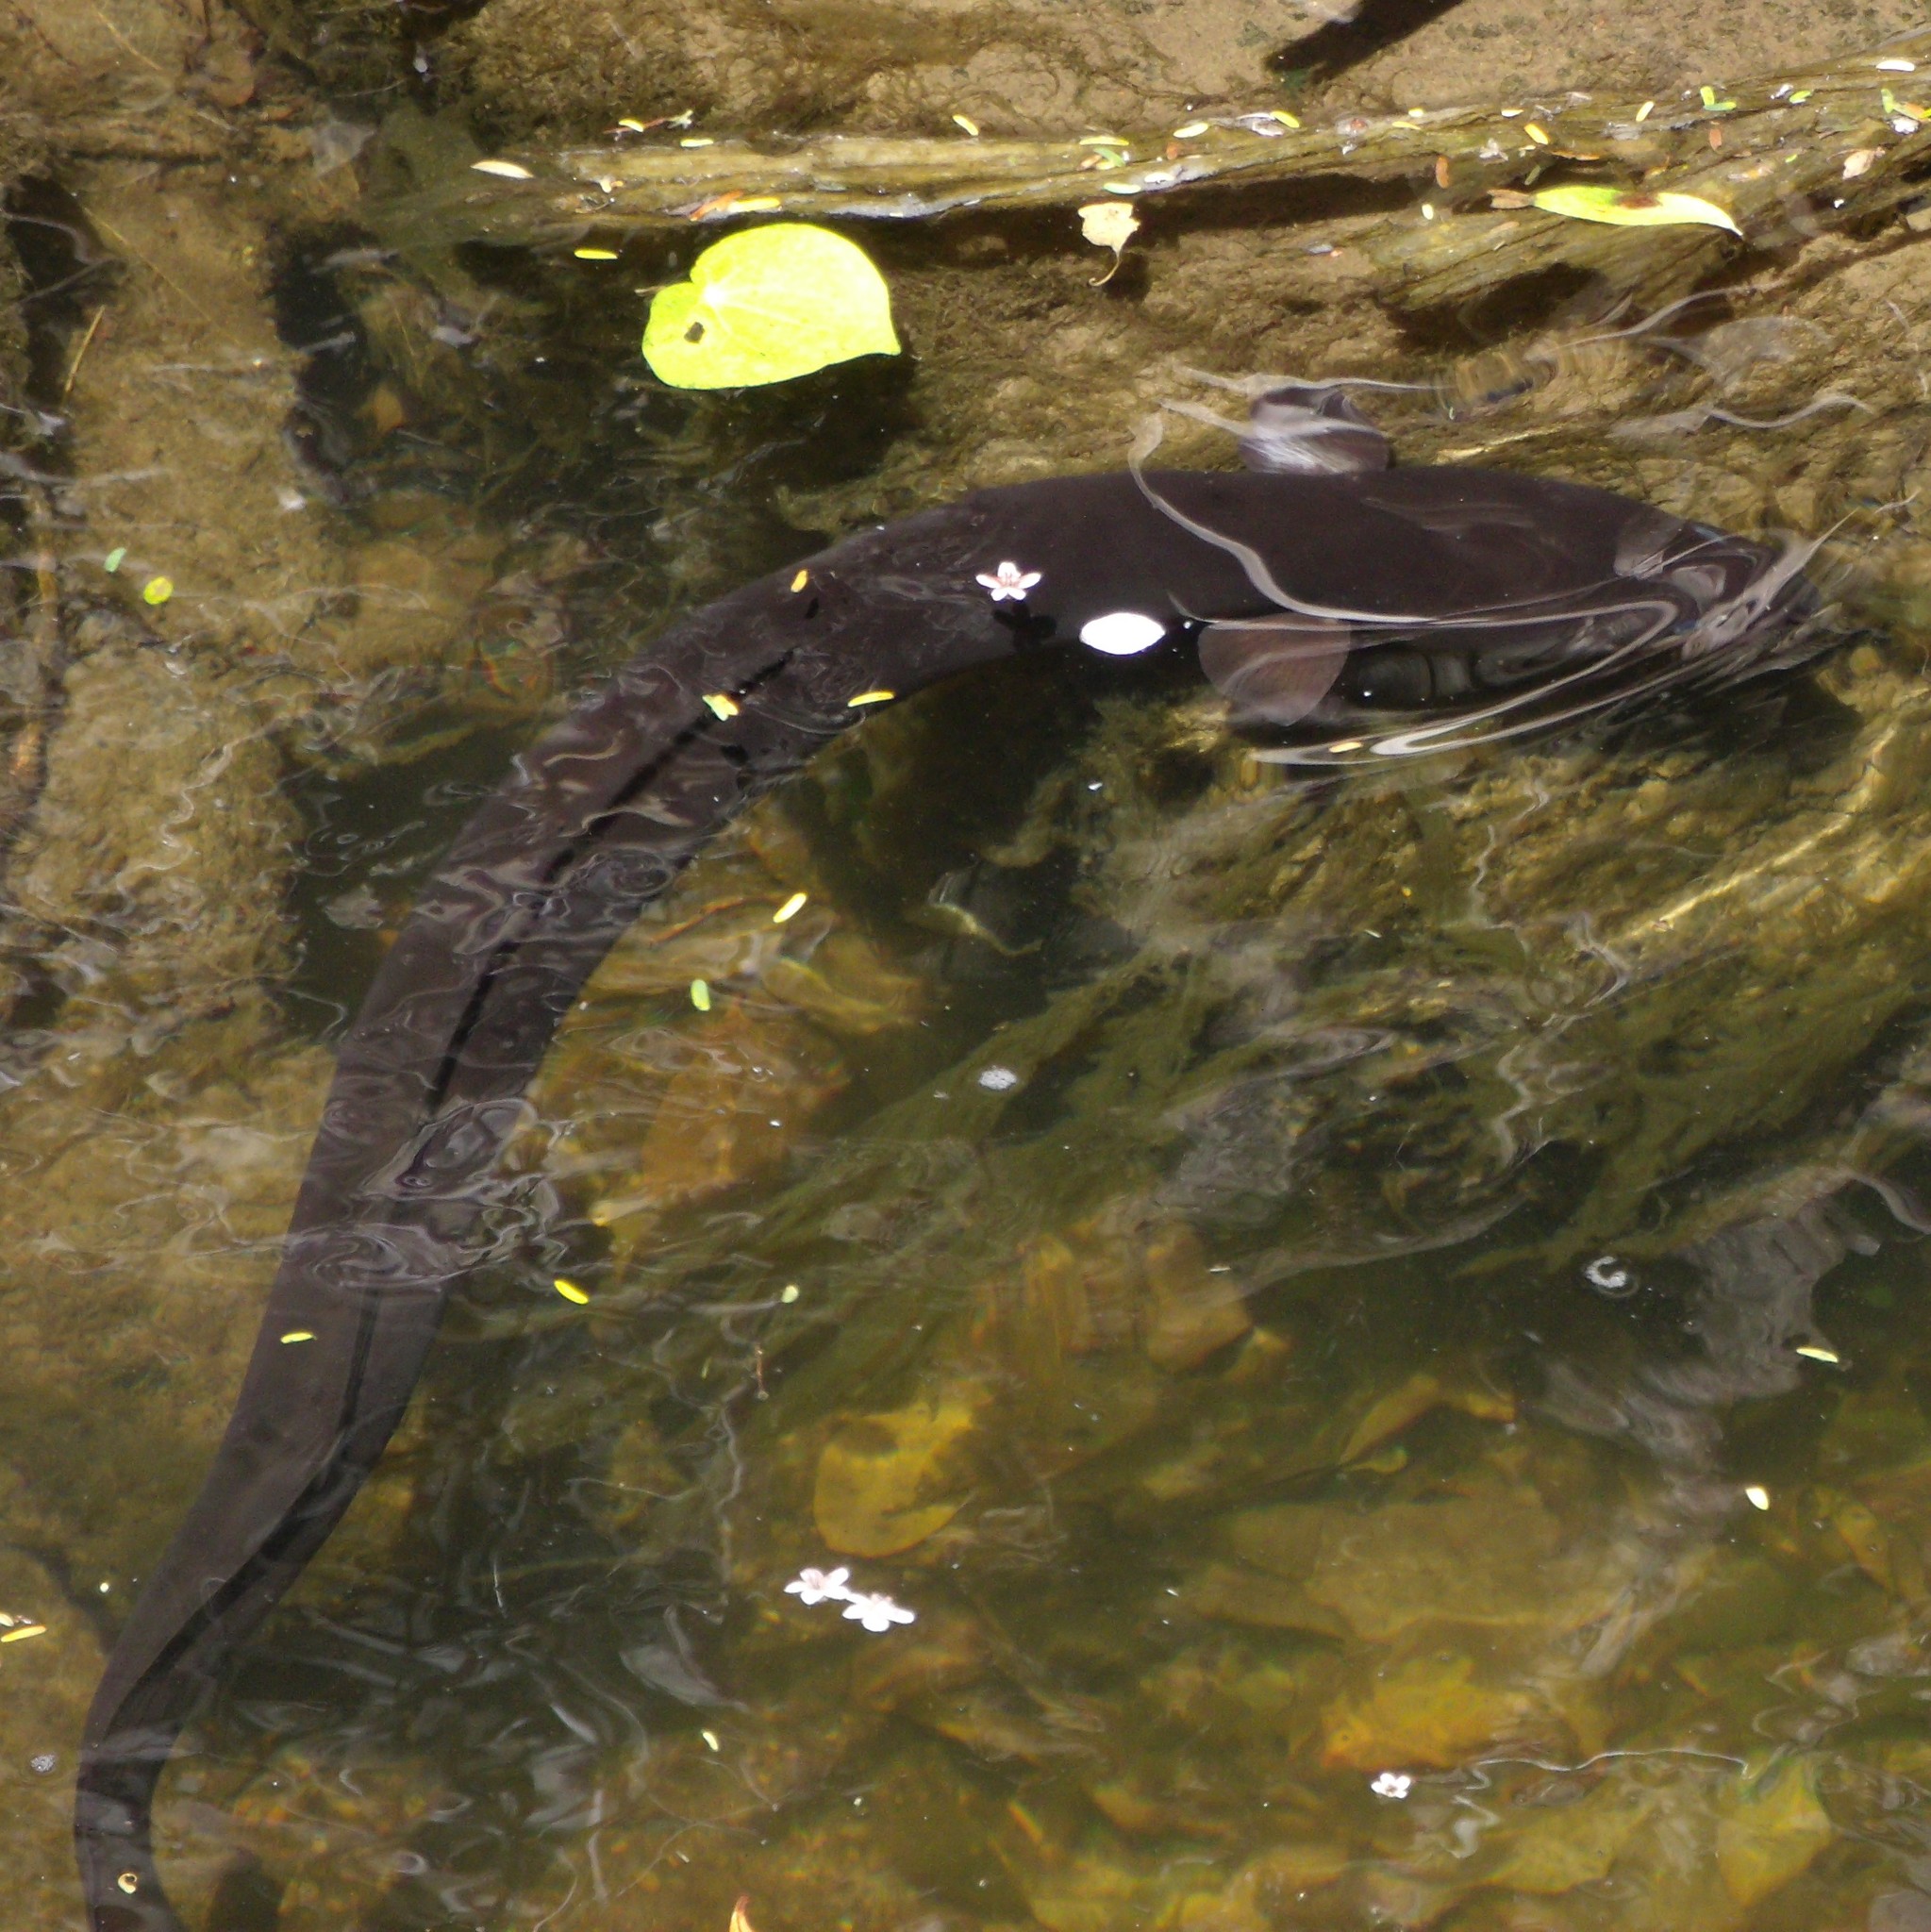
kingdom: Animalia
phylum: Chordata
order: Anguilliformes
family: Anguillidae
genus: Anguilla
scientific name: Anguilla dieffenbachii
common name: New zealand longfin eel
